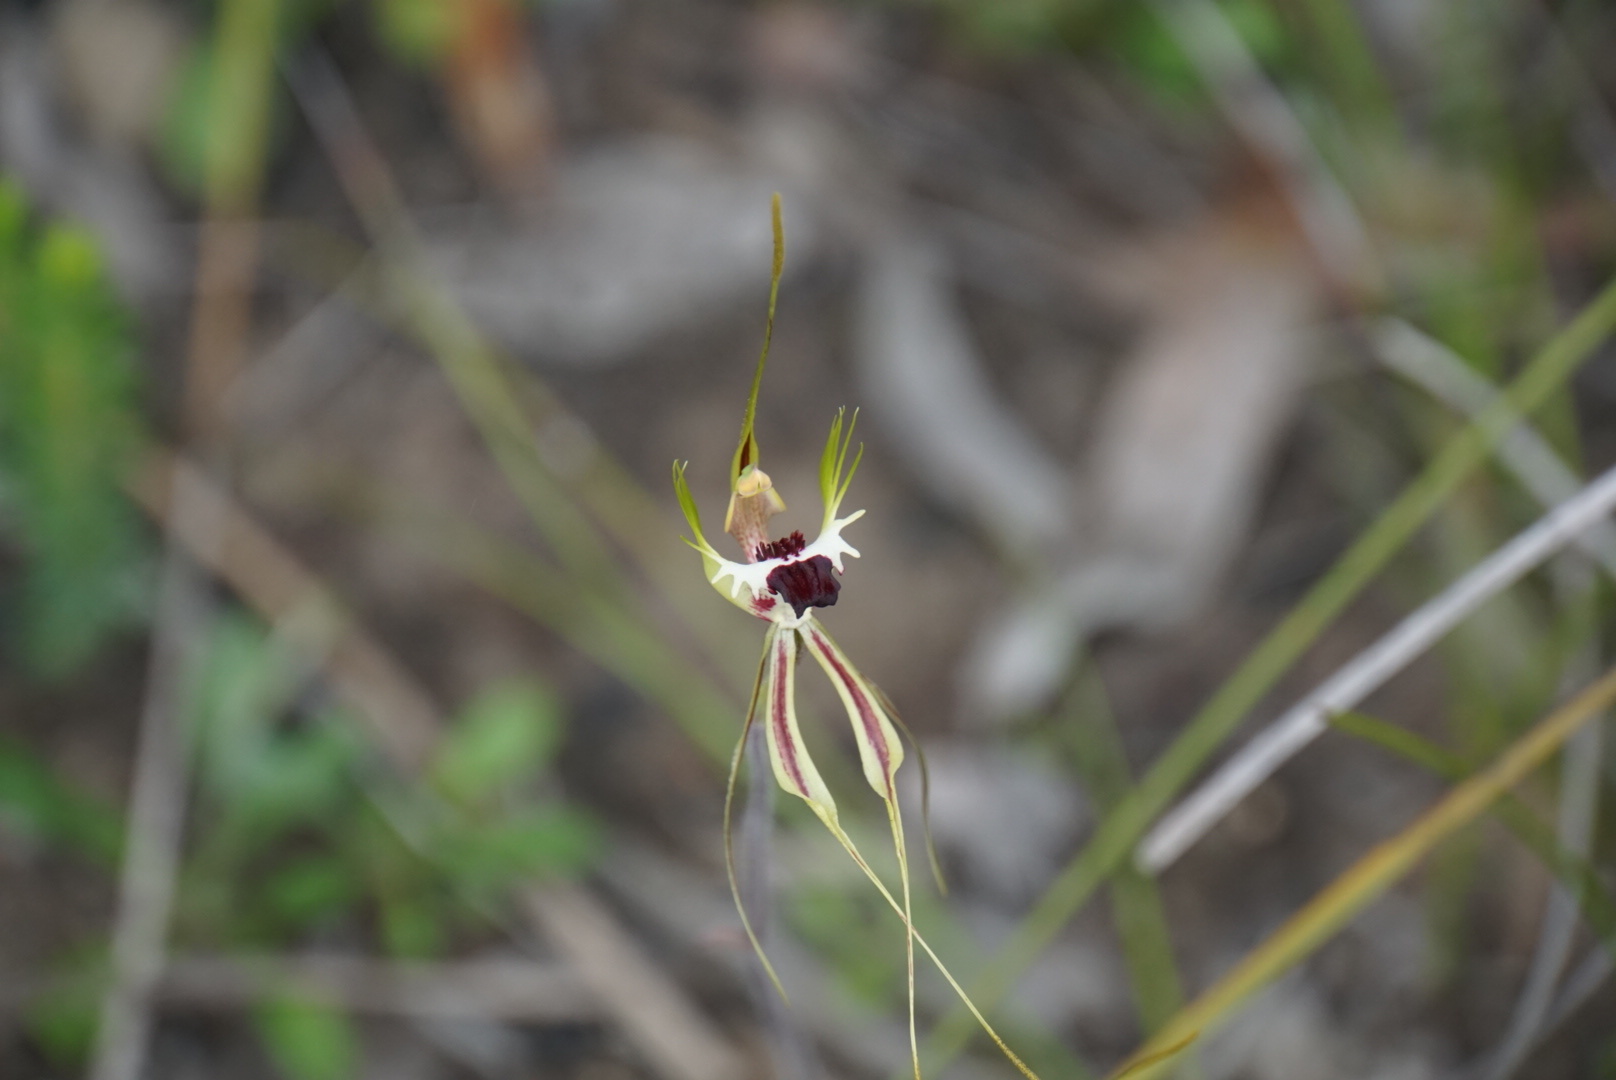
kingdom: Plantae
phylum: Tracheophyta
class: Liliopsida
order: Asparagales
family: Orchidaceae
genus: Caladenia
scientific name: Caladenia tentaculata
